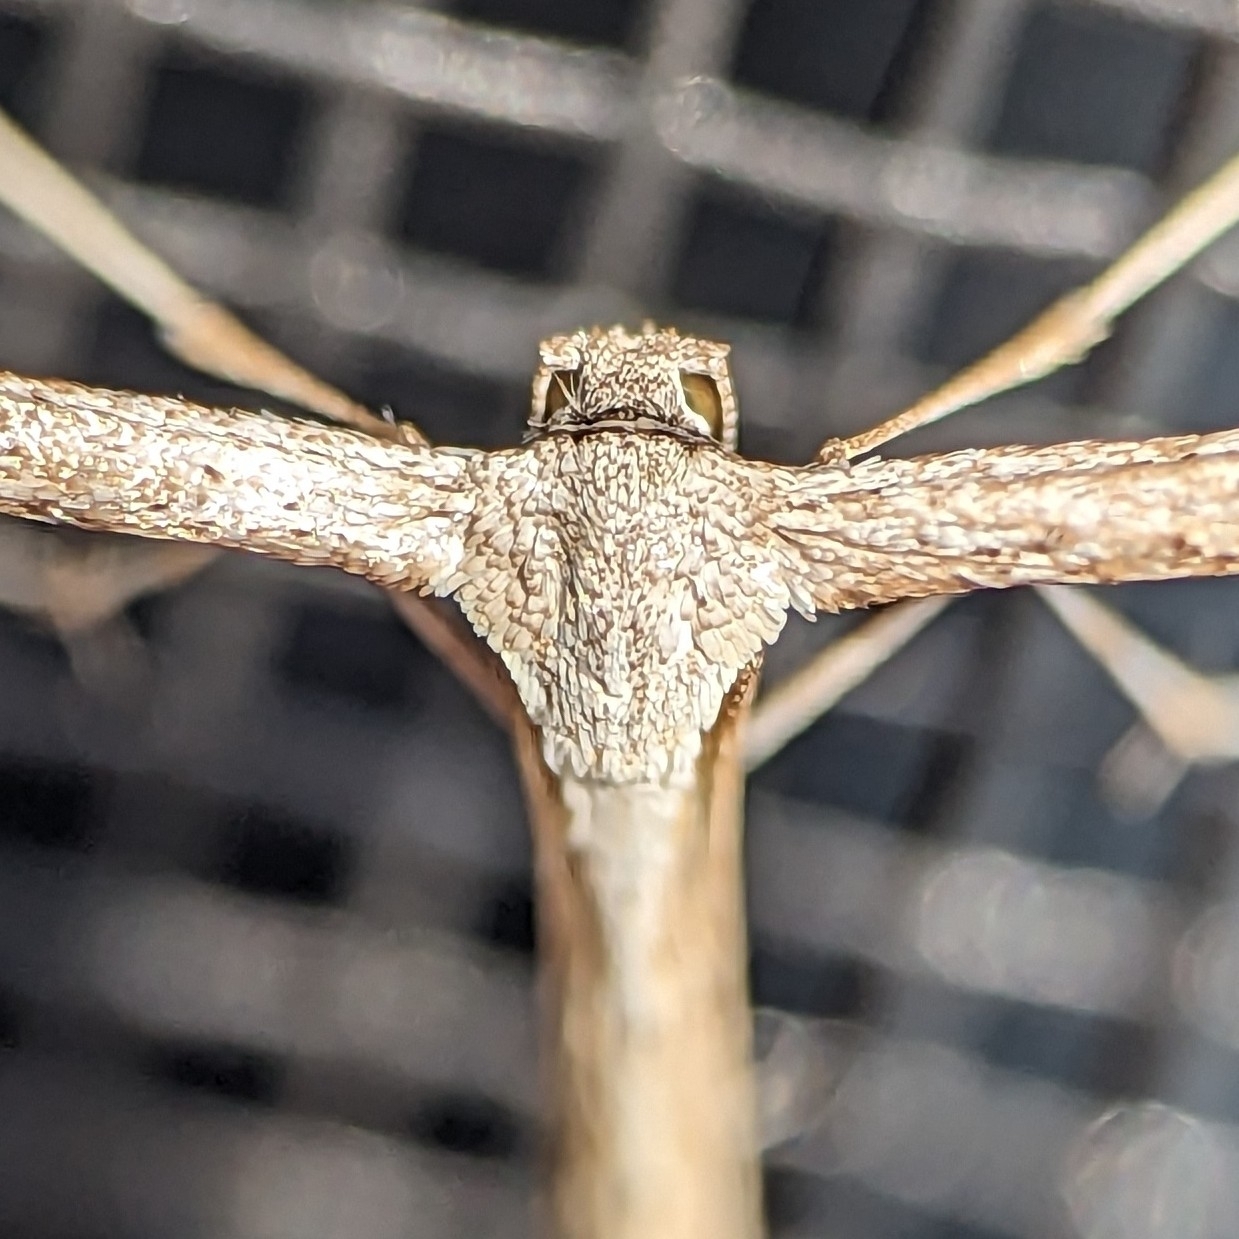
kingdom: Animalia
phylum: Arthropoda
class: Insecta
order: Lepidoptera
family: Pterophoridae
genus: Emmelina
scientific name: Emmelina monodactyla
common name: Common plume
